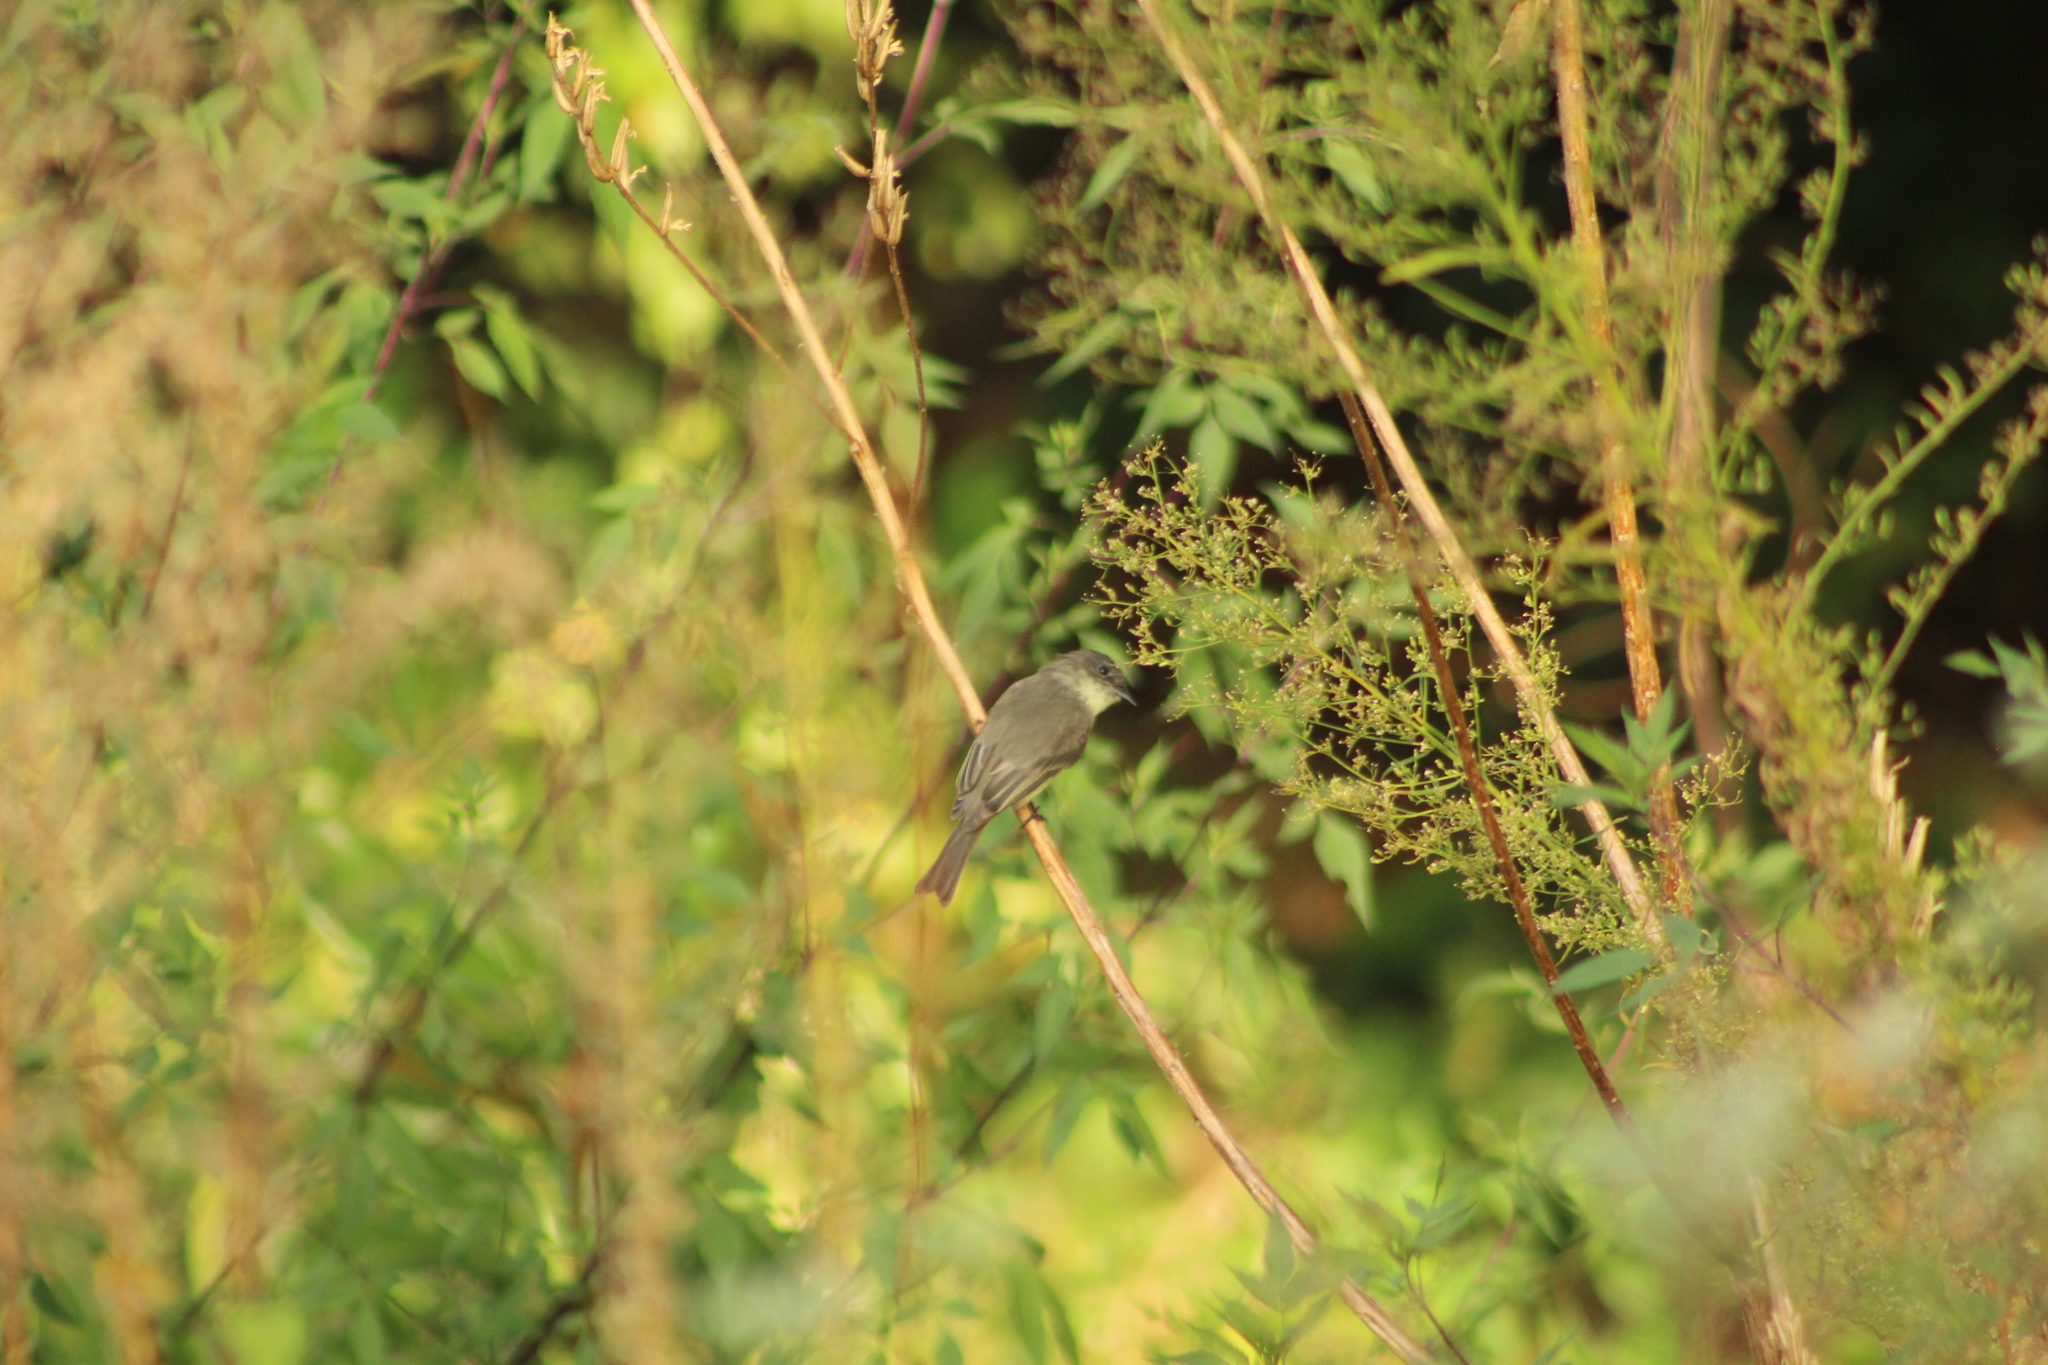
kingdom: Animalia
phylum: Chordata
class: Aves
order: Passeriformes
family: Tyrannidae
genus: Sayornis
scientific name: Sayornis phoebe
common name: Eastern phoebe
